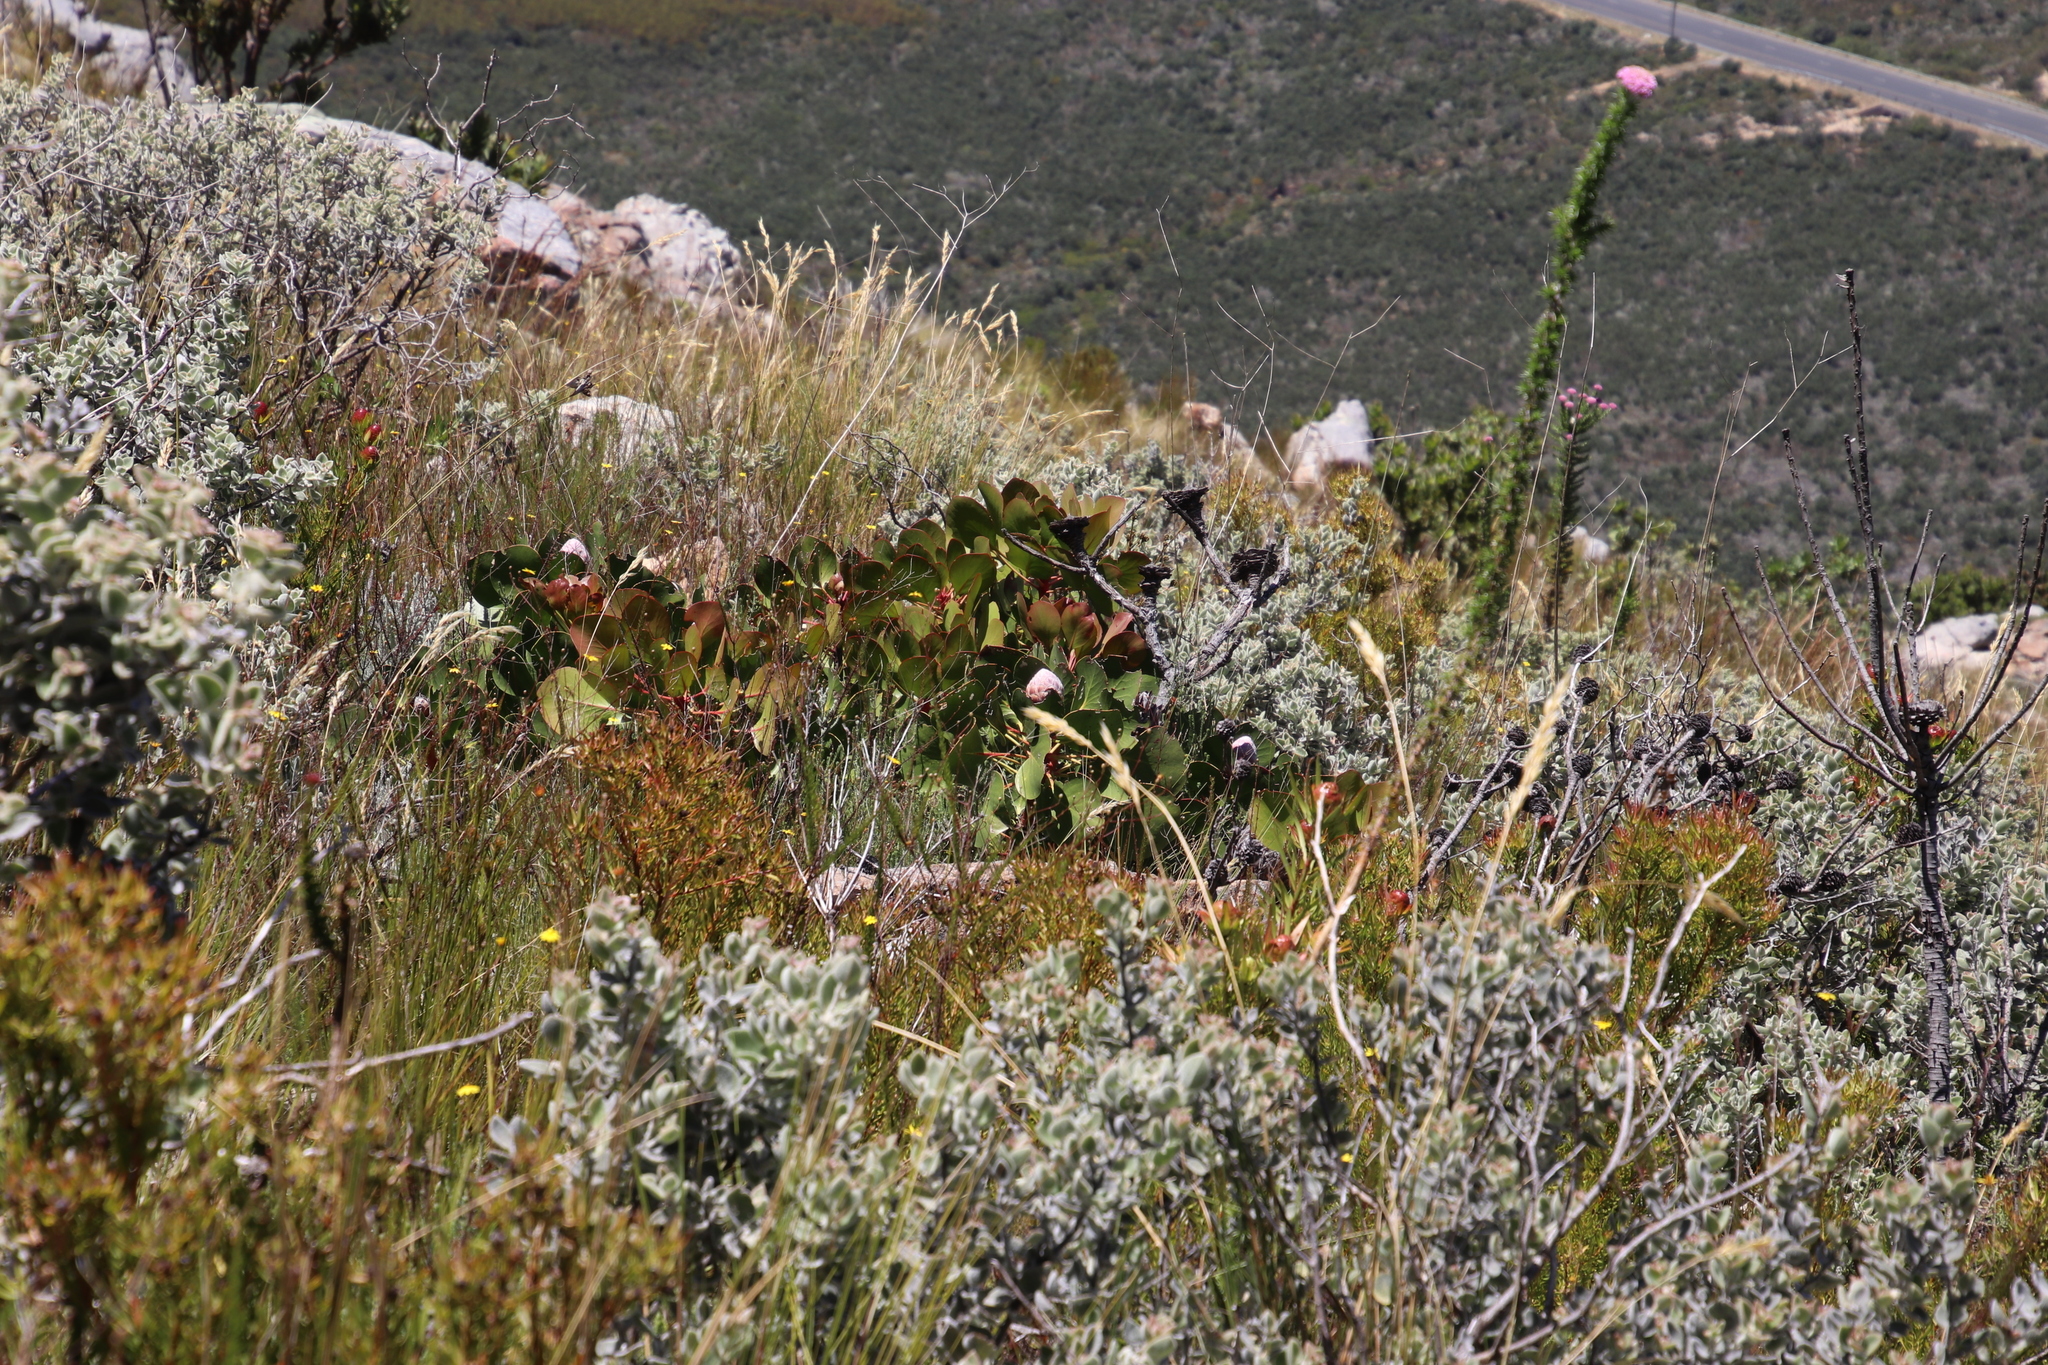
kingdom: Plantae
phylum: Tracheophyta
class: Magnoliopsida
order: Proteales
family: Proteaceae
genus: Protea
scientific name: Protea cynaroides
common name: King protea
